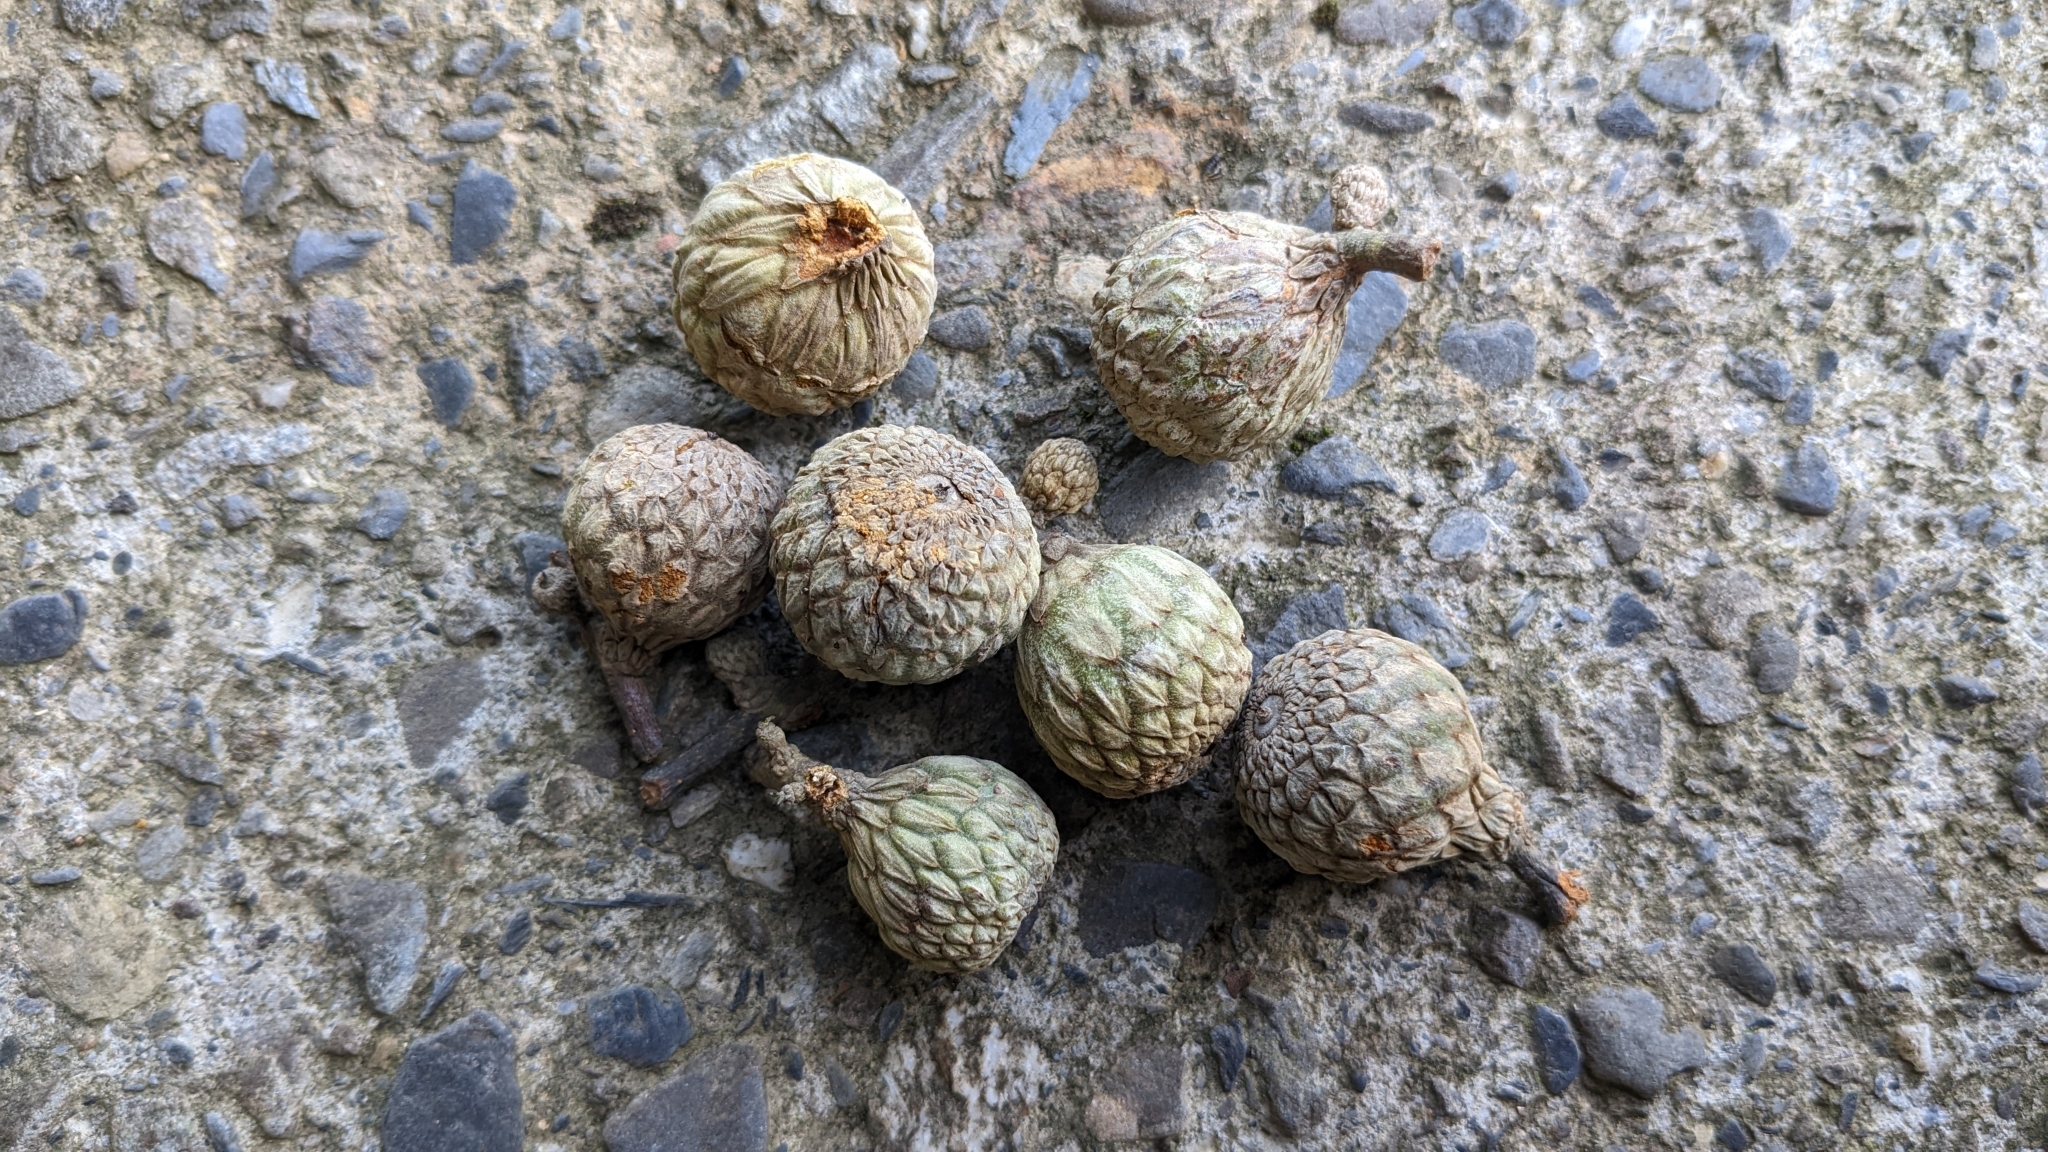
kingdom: Plantae
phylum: Tracheophyta
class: Magnoliopsida
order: Fagales
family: Fagaceae
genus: Lithocarpus
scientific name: Lithocarpus amygdalifolius
